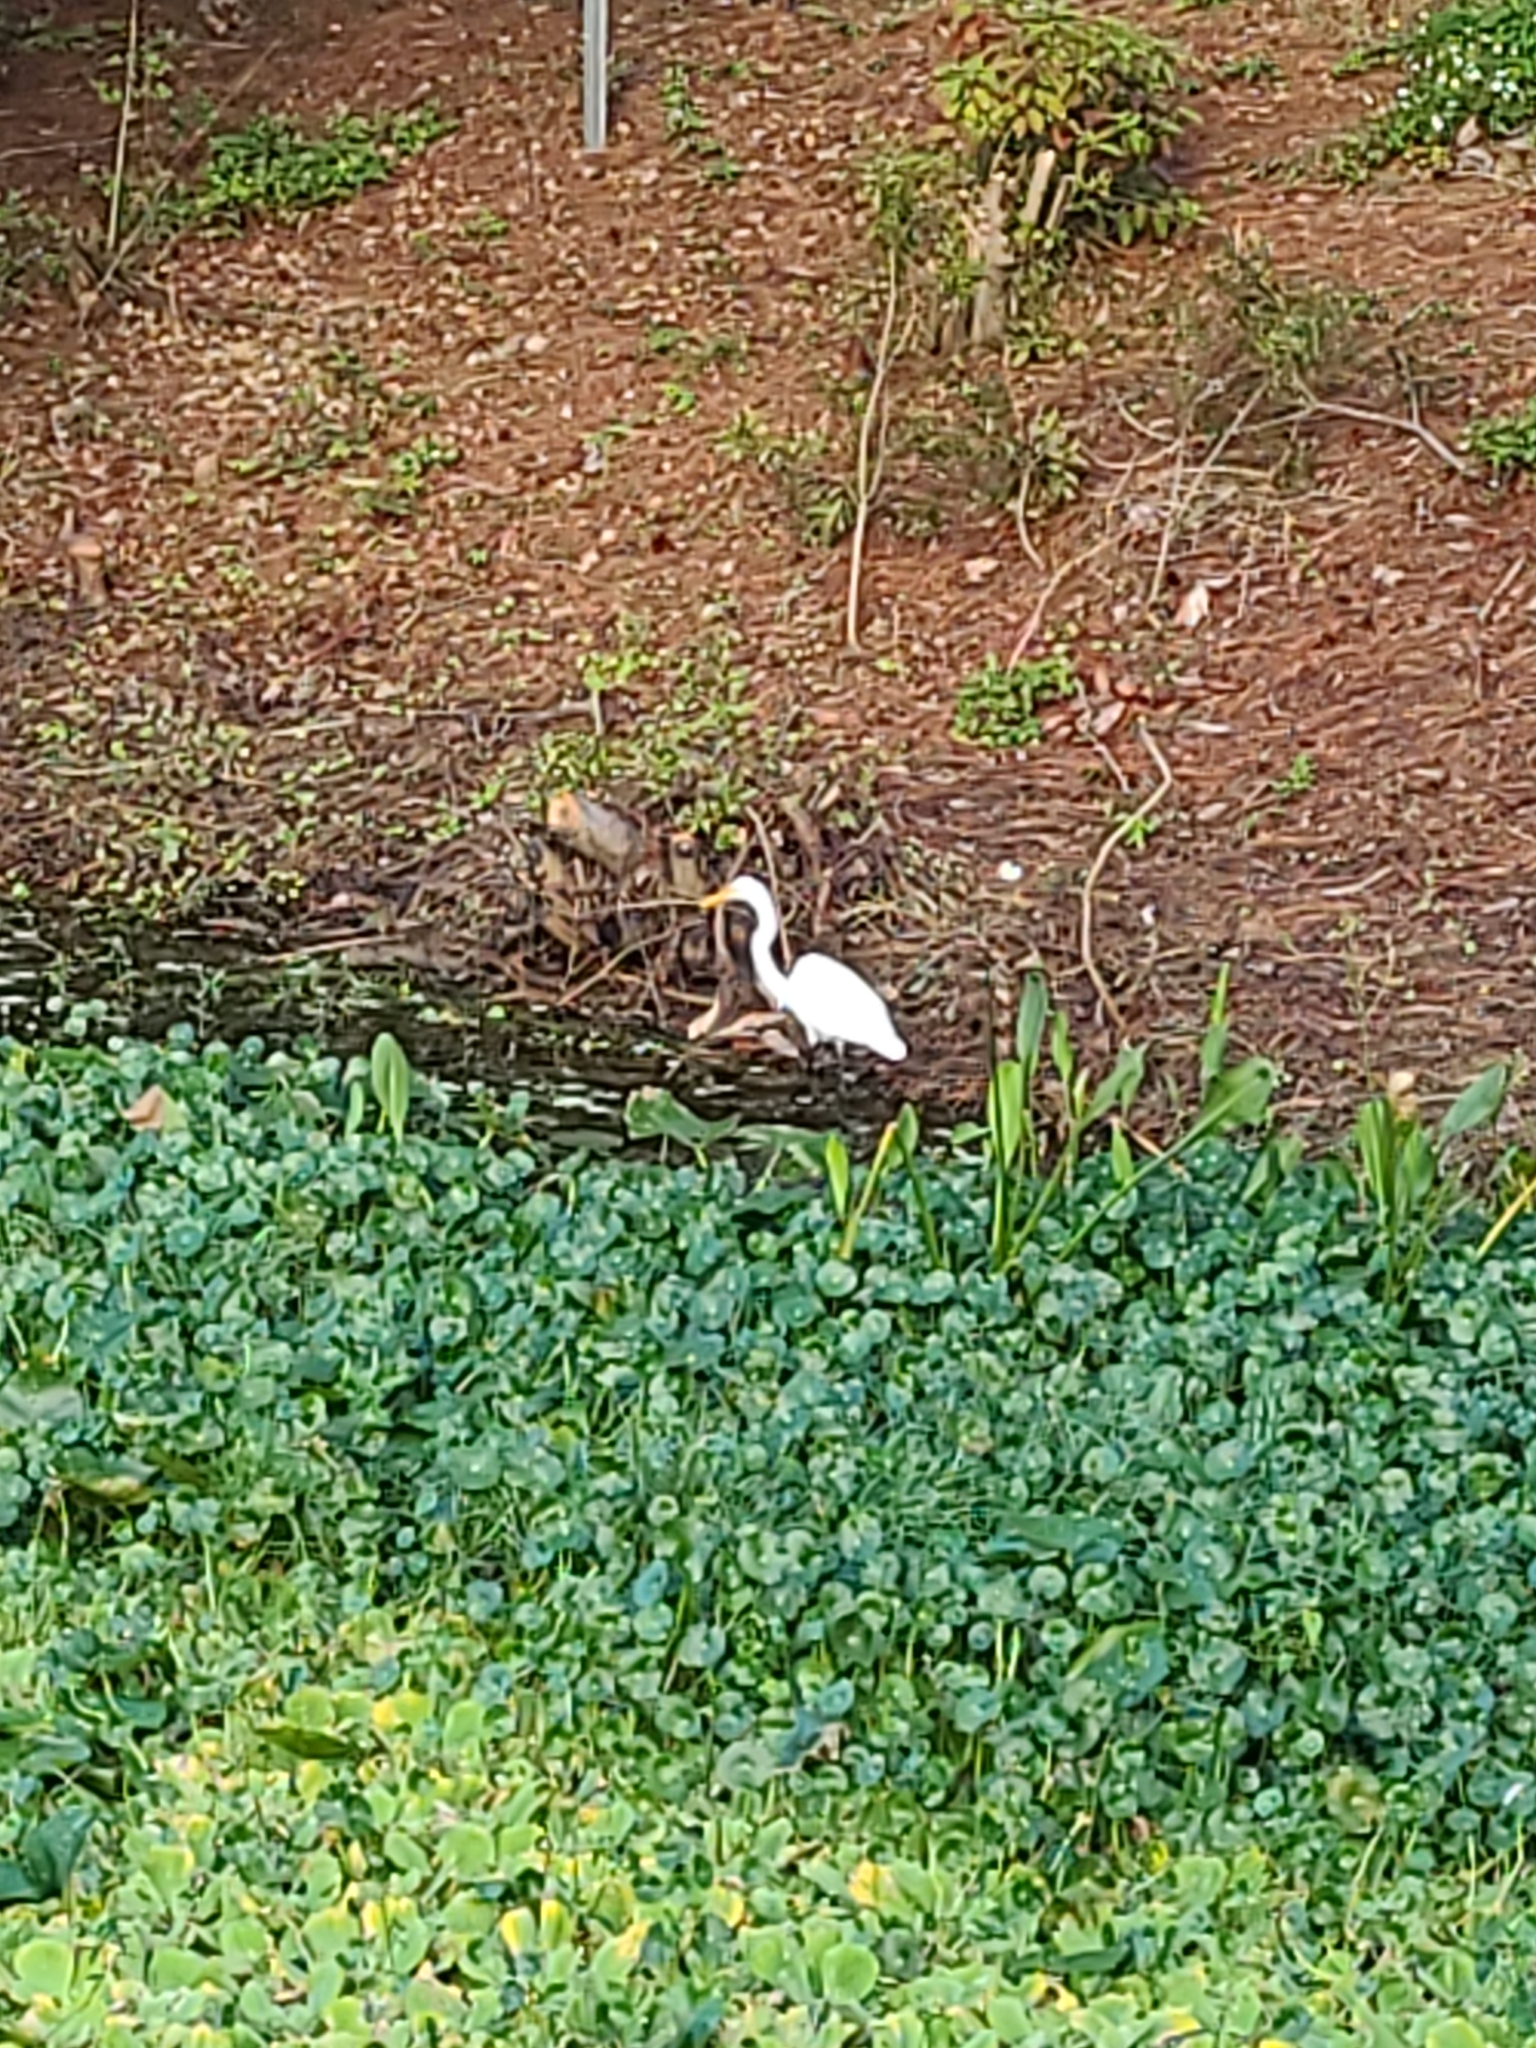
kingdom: Animalia
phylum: Chordata
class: Aves
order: Pelecaniformes
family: Ardeidae
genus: Ardea
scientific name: Ardea alba
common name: Great egret
